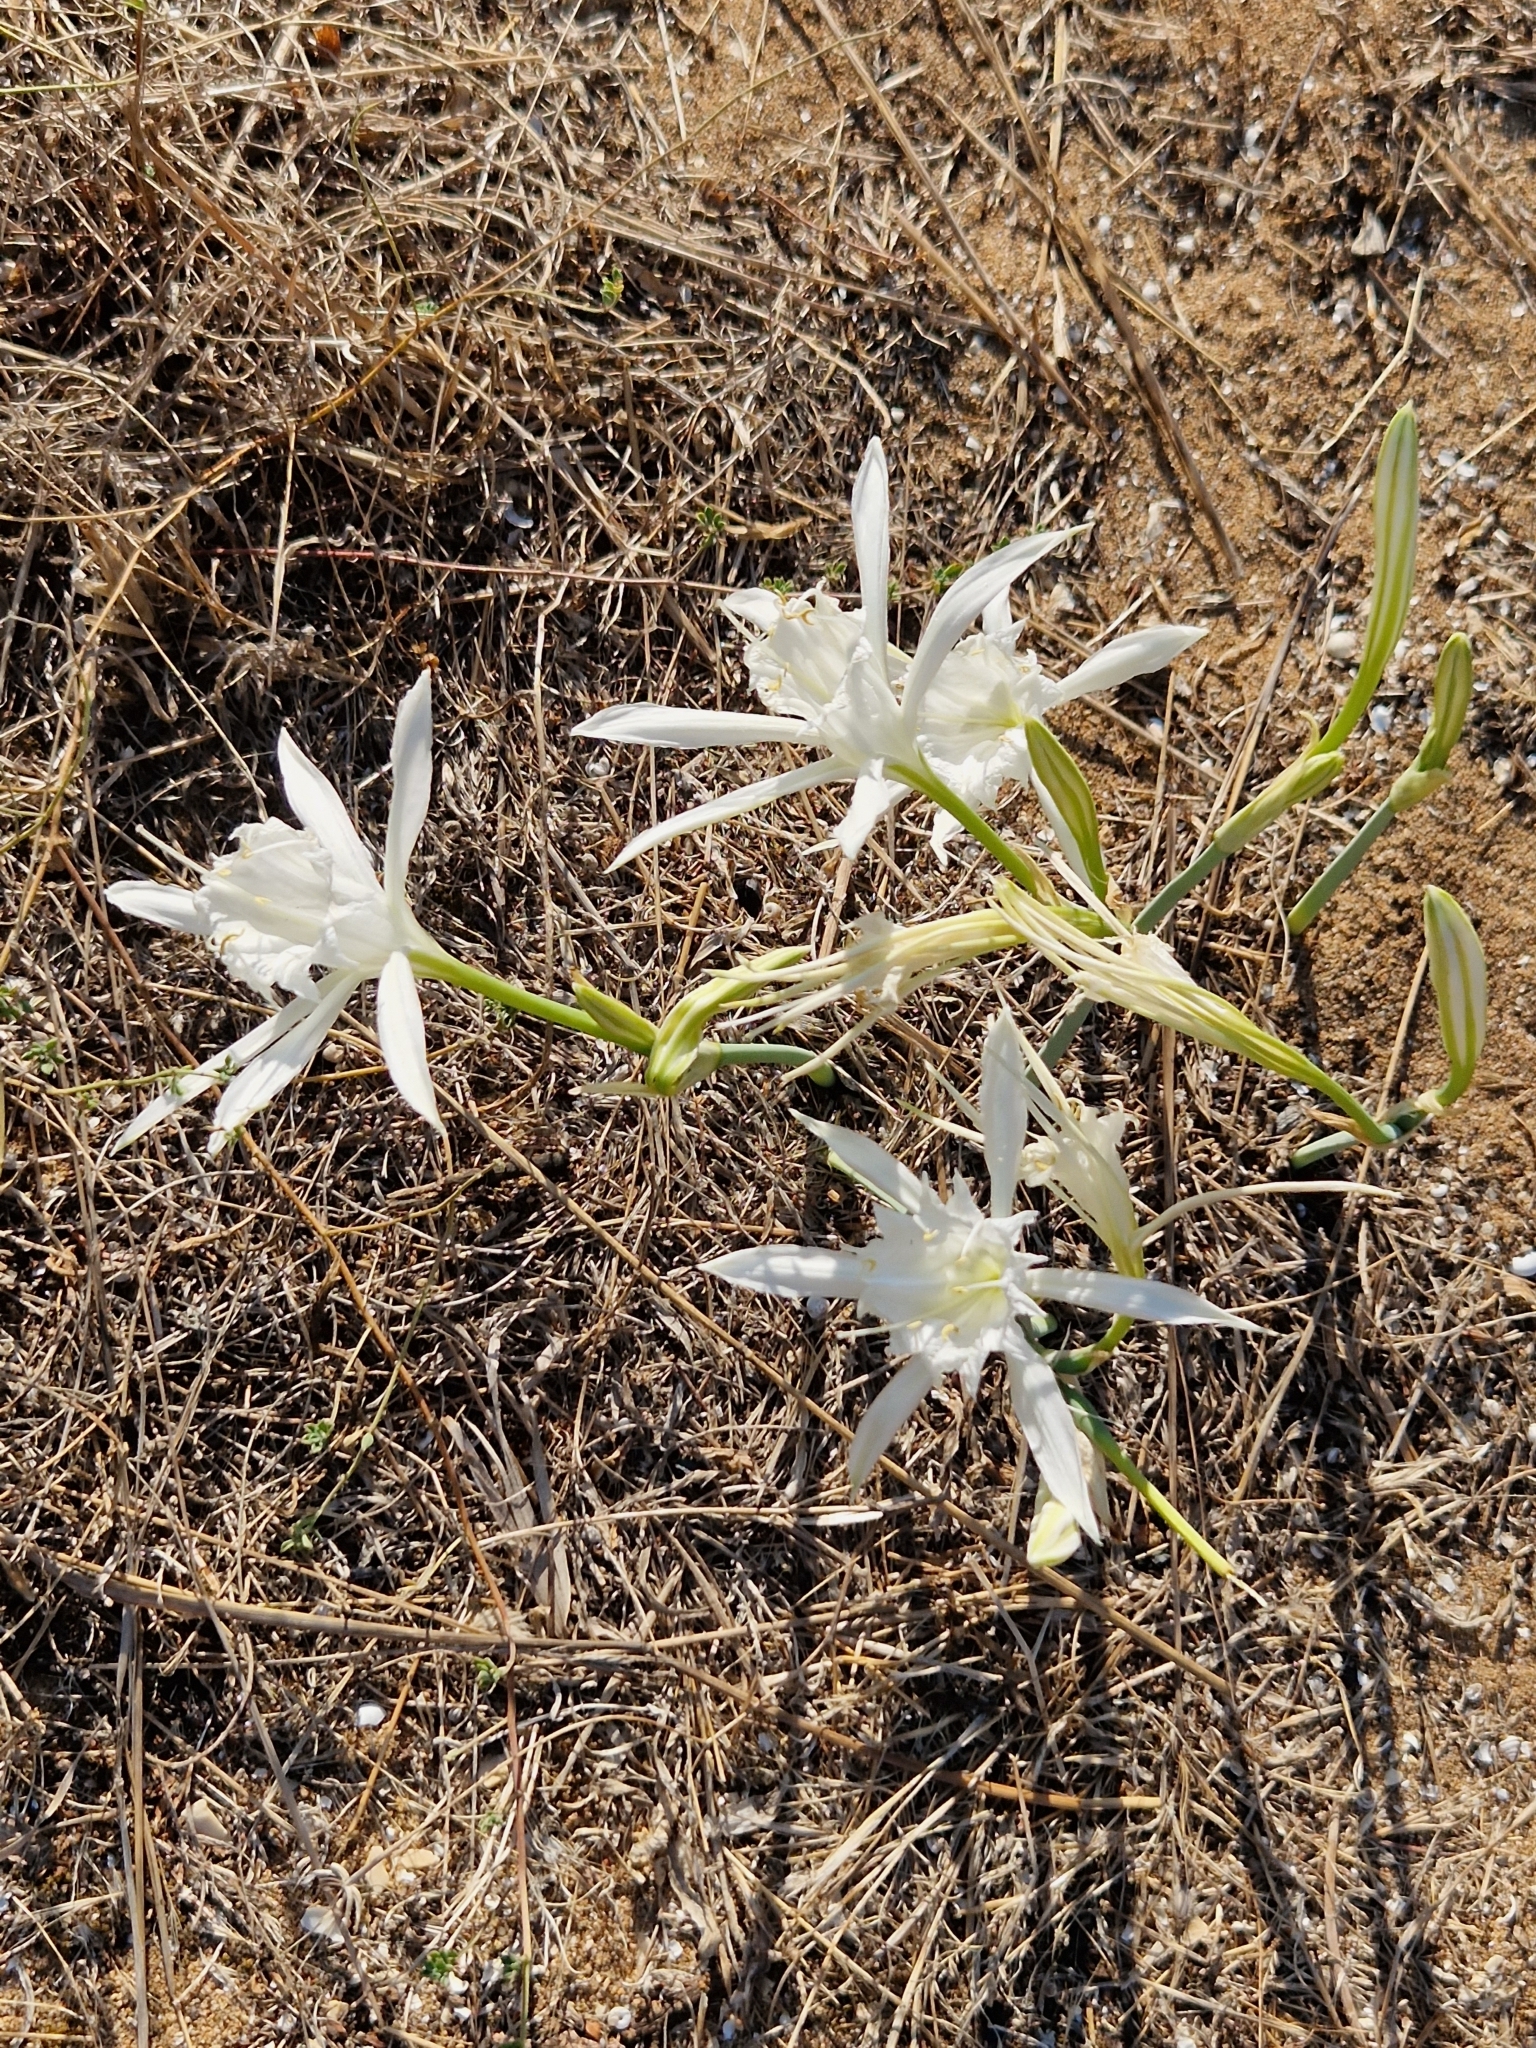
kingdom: Plantae
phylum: Tracheophyta
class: Liliopsida
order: Asparagales
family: Amaryllidaceae
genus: Pancratium
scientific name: Pancratium maritimum
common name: Sea-daffodil
